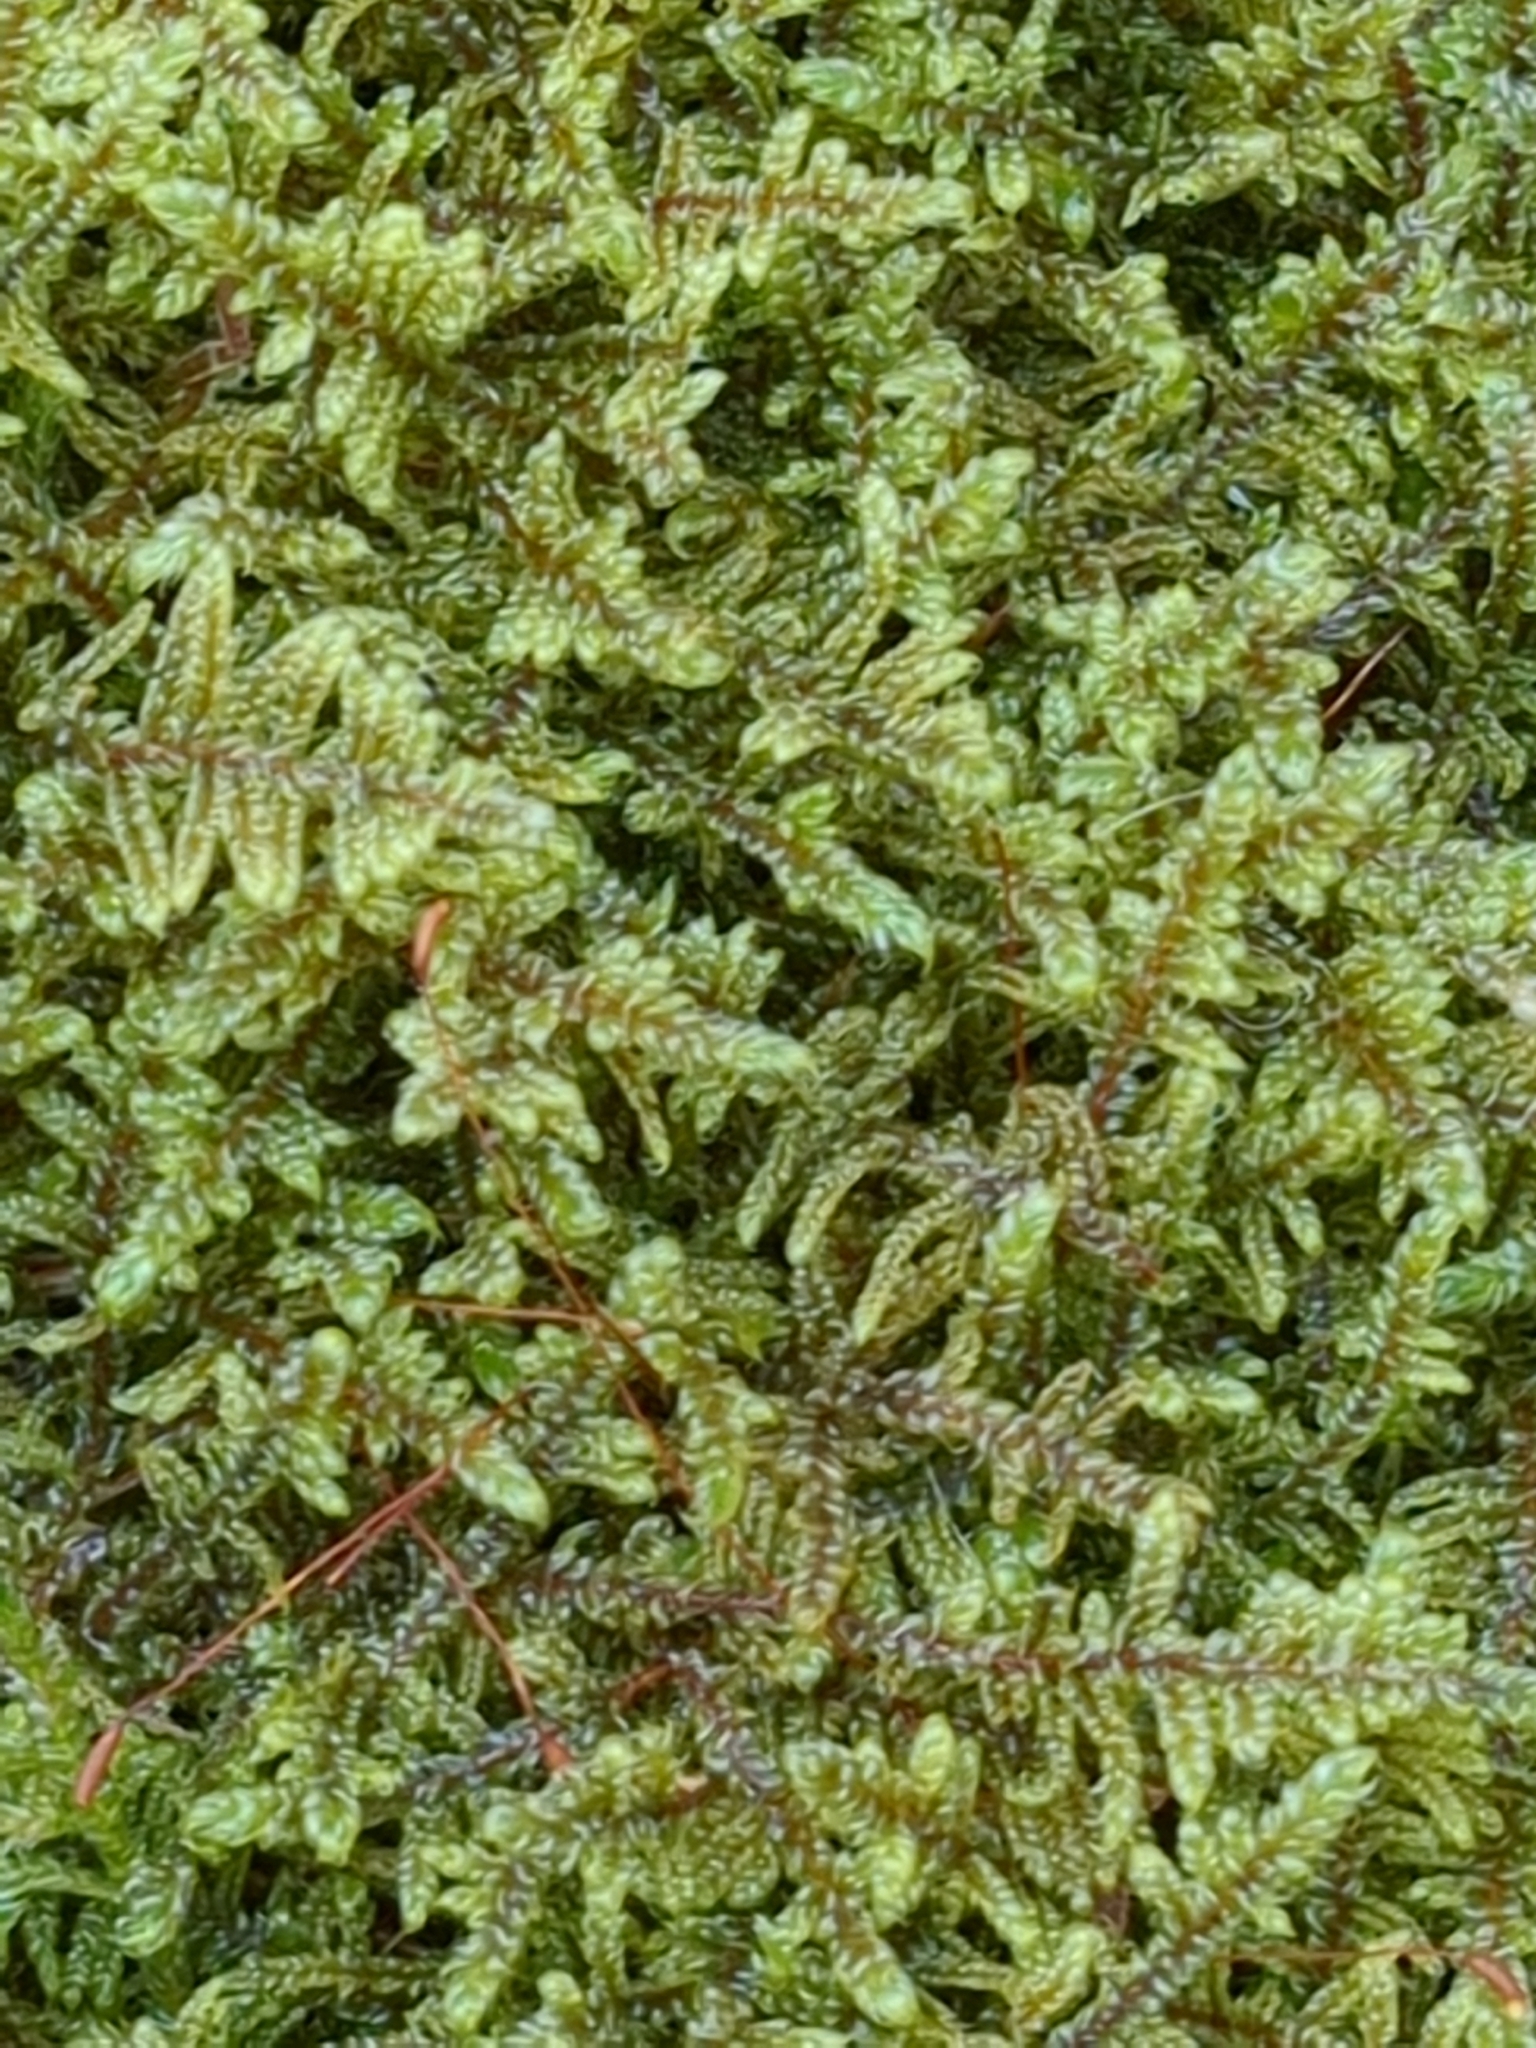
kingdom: Plantae
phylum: Bryophyta
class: Bryopsida
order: Hypnales
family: Callicladiaceae
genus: Callicladium
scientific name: Callicladium imponens
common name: Brocade moss
